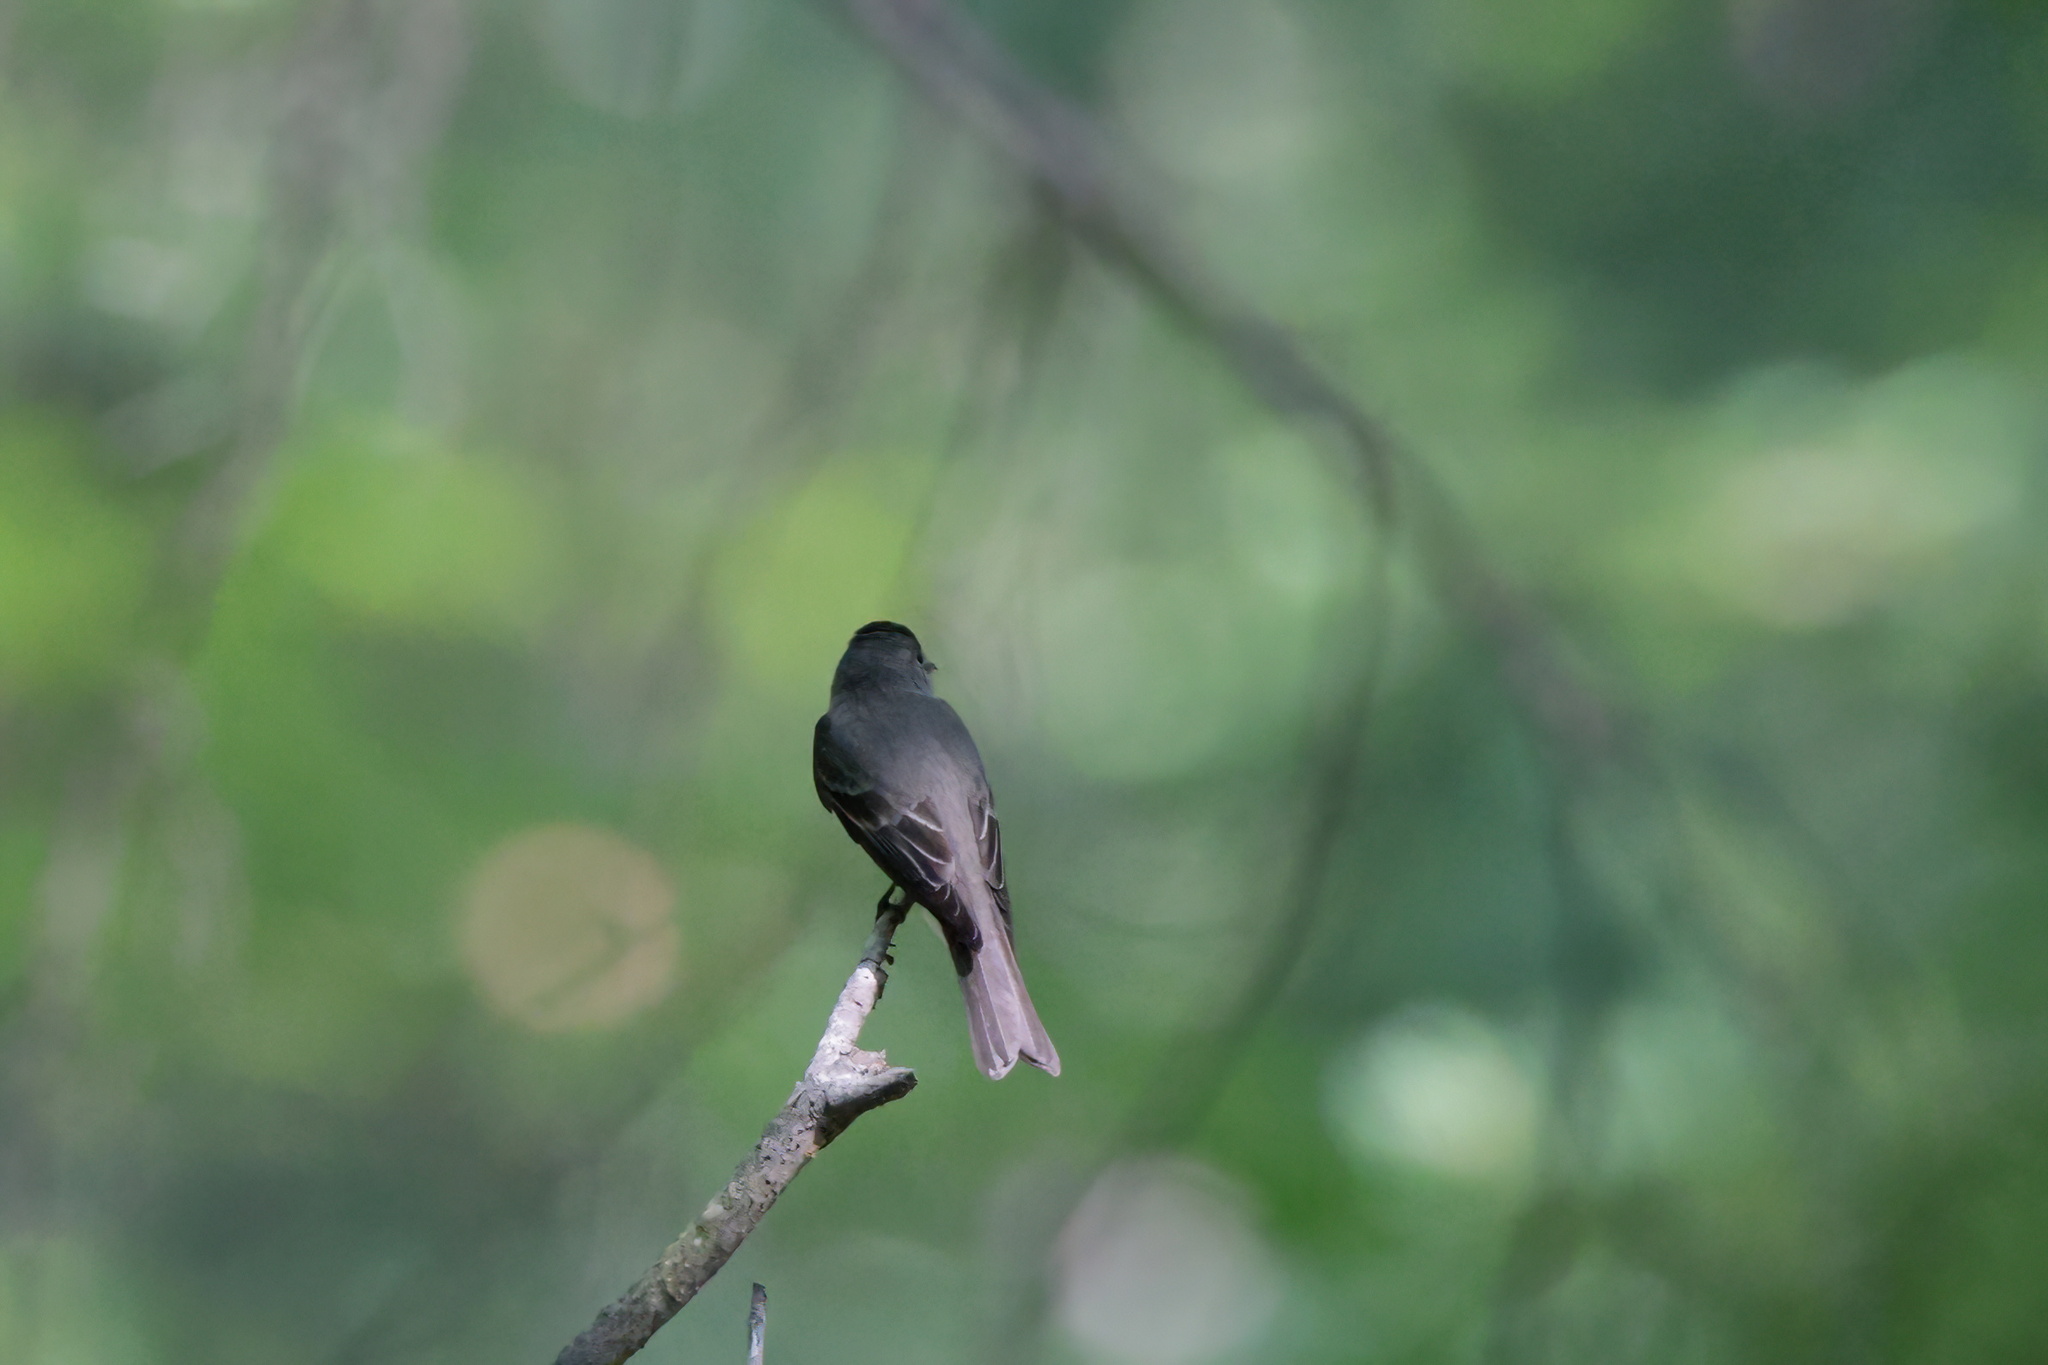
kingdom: Animalia
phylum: Chordata
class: Aves
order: Passeriformes
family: Tyrannidae
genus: Contopus
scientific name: Contopus virens
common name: Eastern wood-pewee
